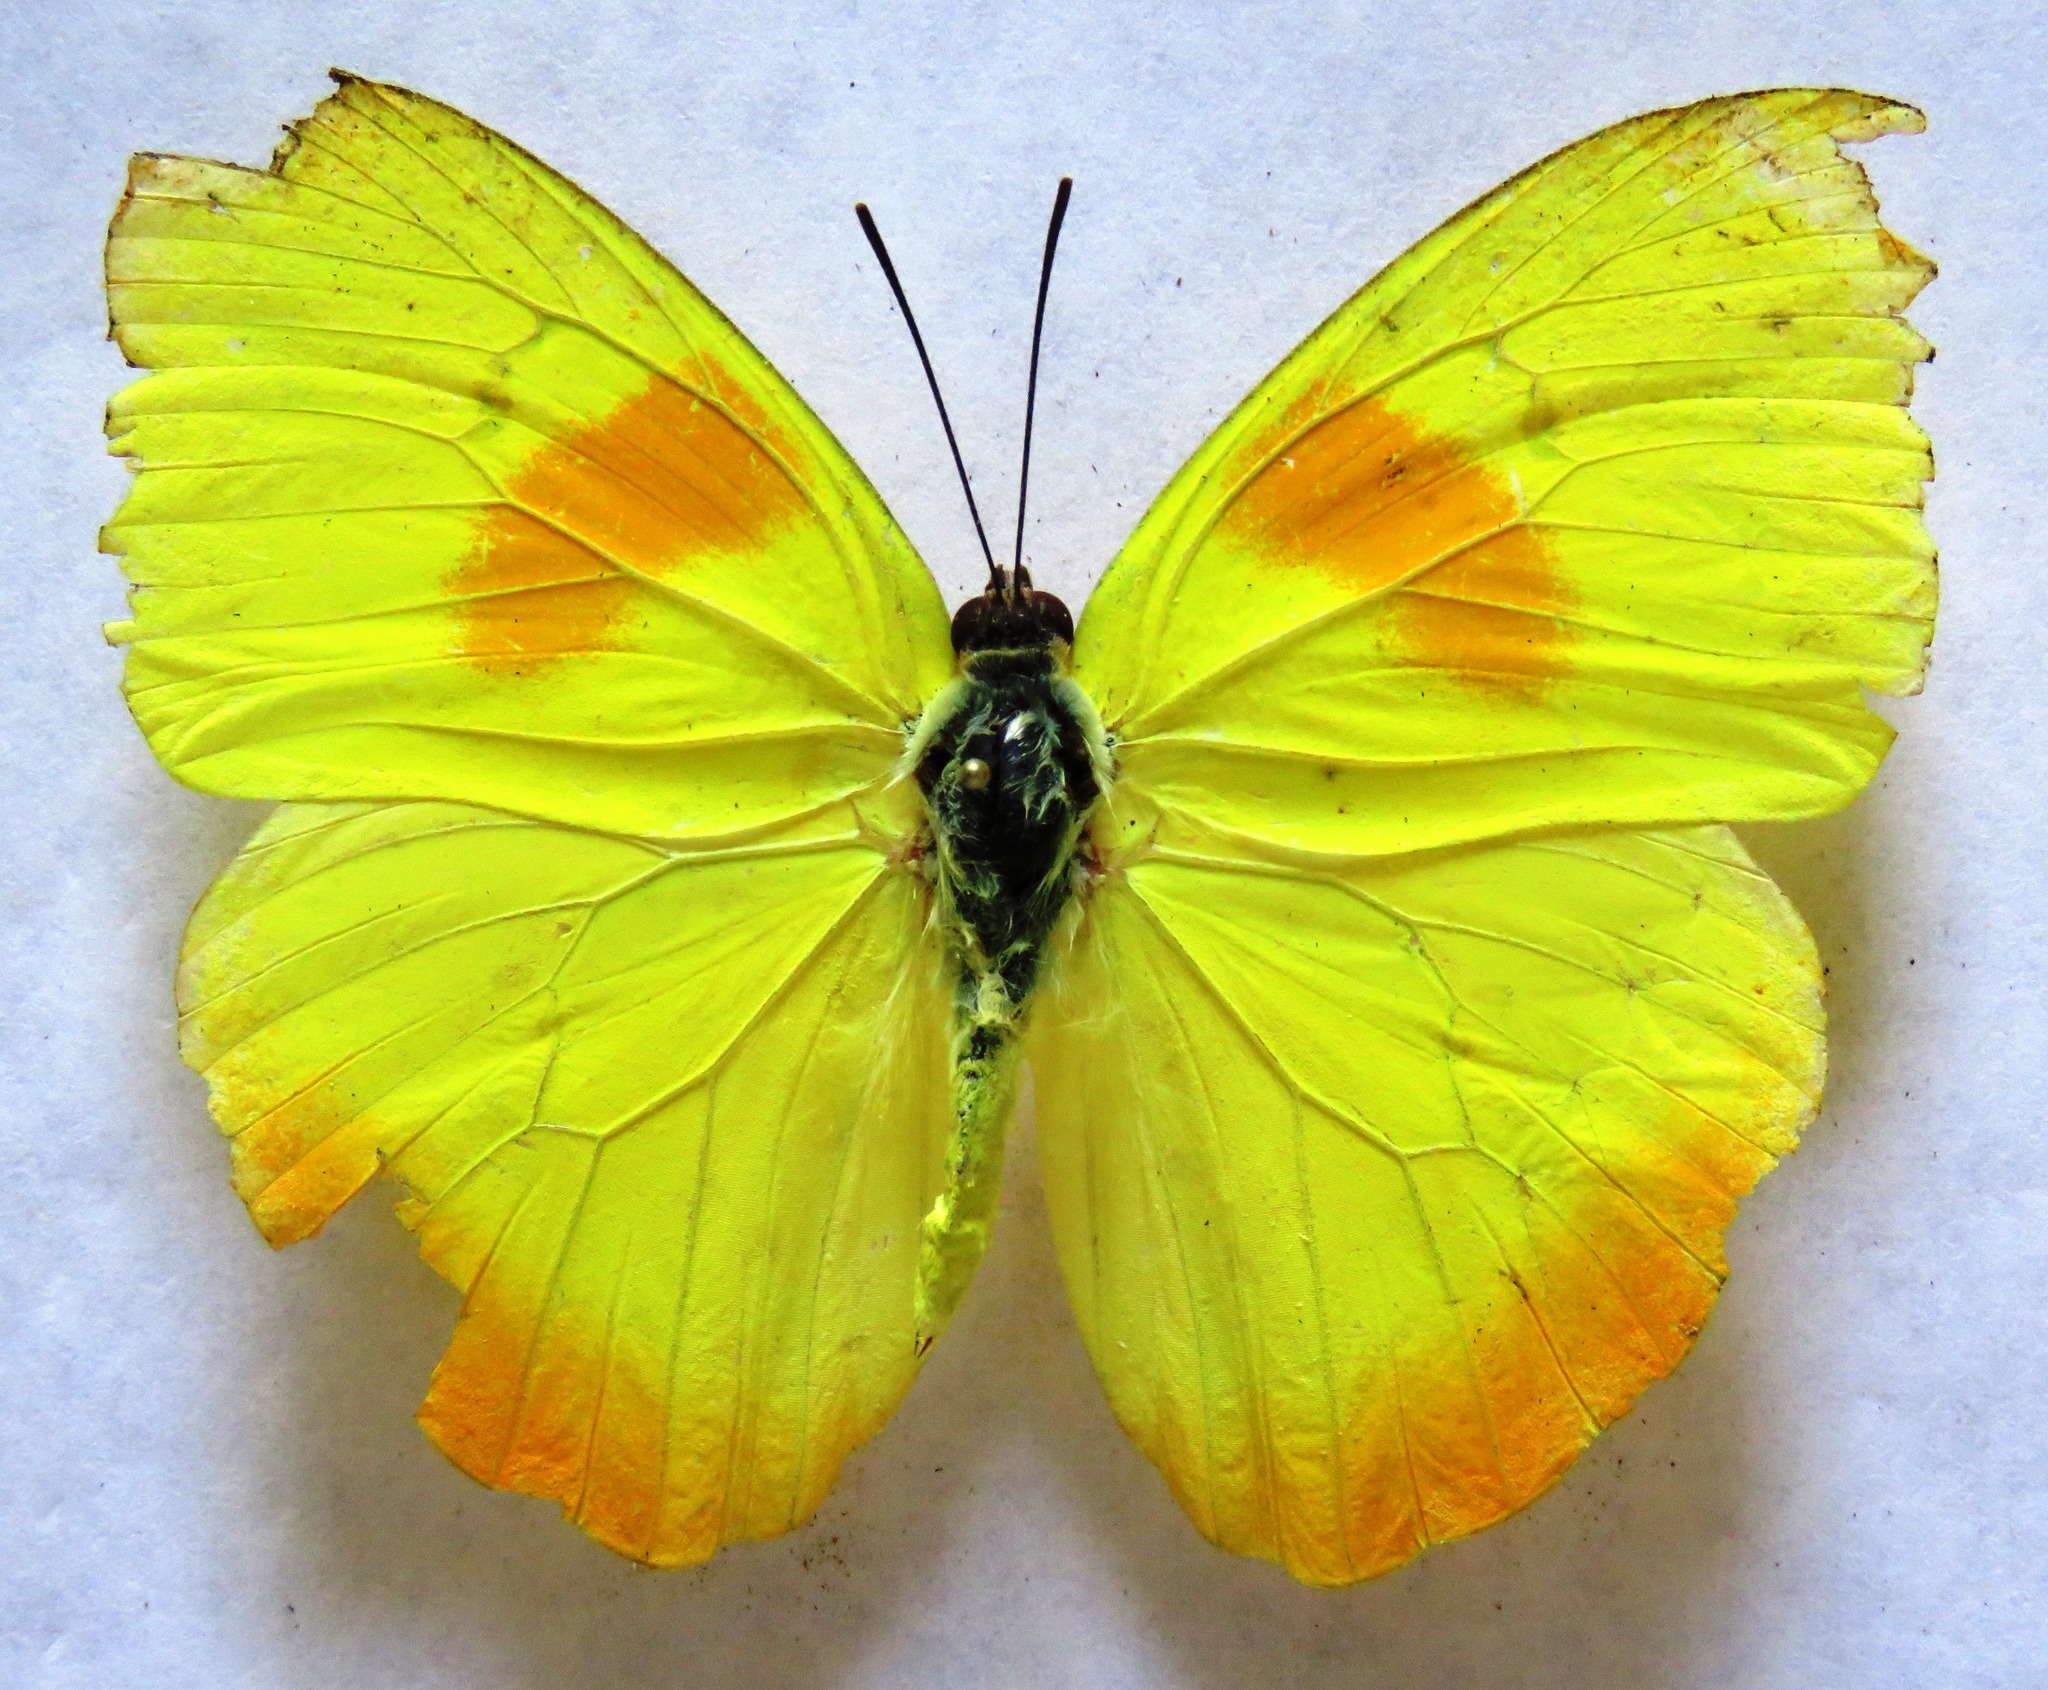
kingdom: Animalia
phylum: Arthropoda
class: Insecta
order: Lepidoptera
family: Pieridae
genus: Phoebis
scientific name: Phoebis philea
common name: Orange-barred giant sulphur
